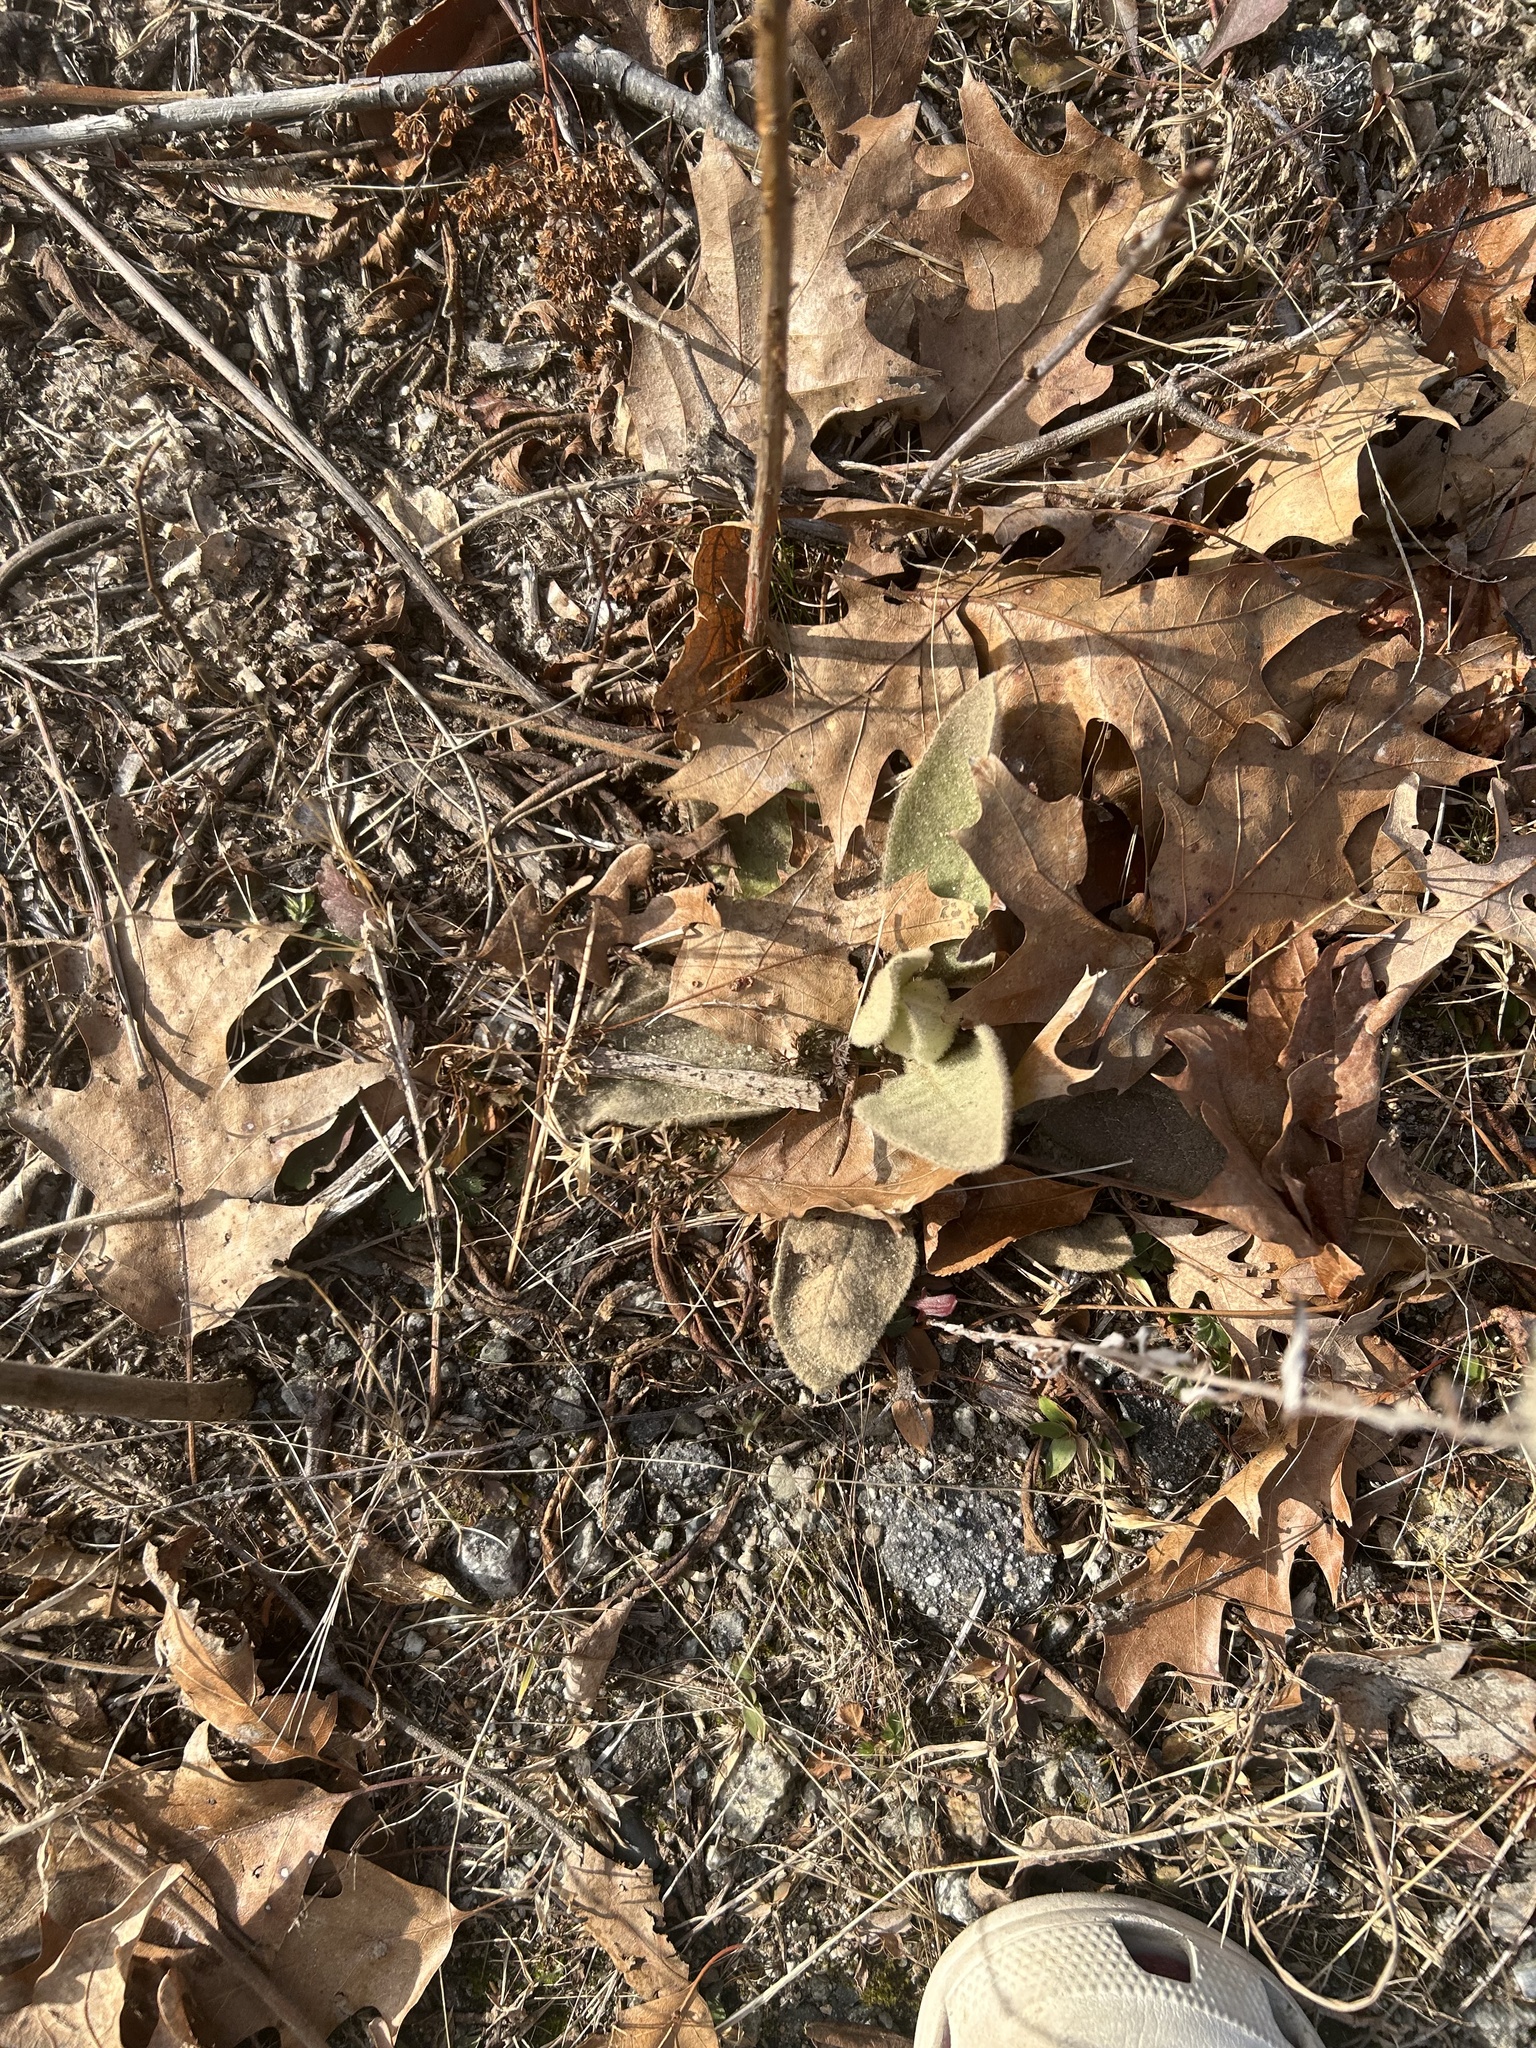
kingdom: Plantae
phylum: Tracheophyta
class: Magnoliopsida
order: Lamiales
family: Scrophulariaceae
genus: Verbascum
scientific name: Verbascum thapsus
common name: Common mullein
